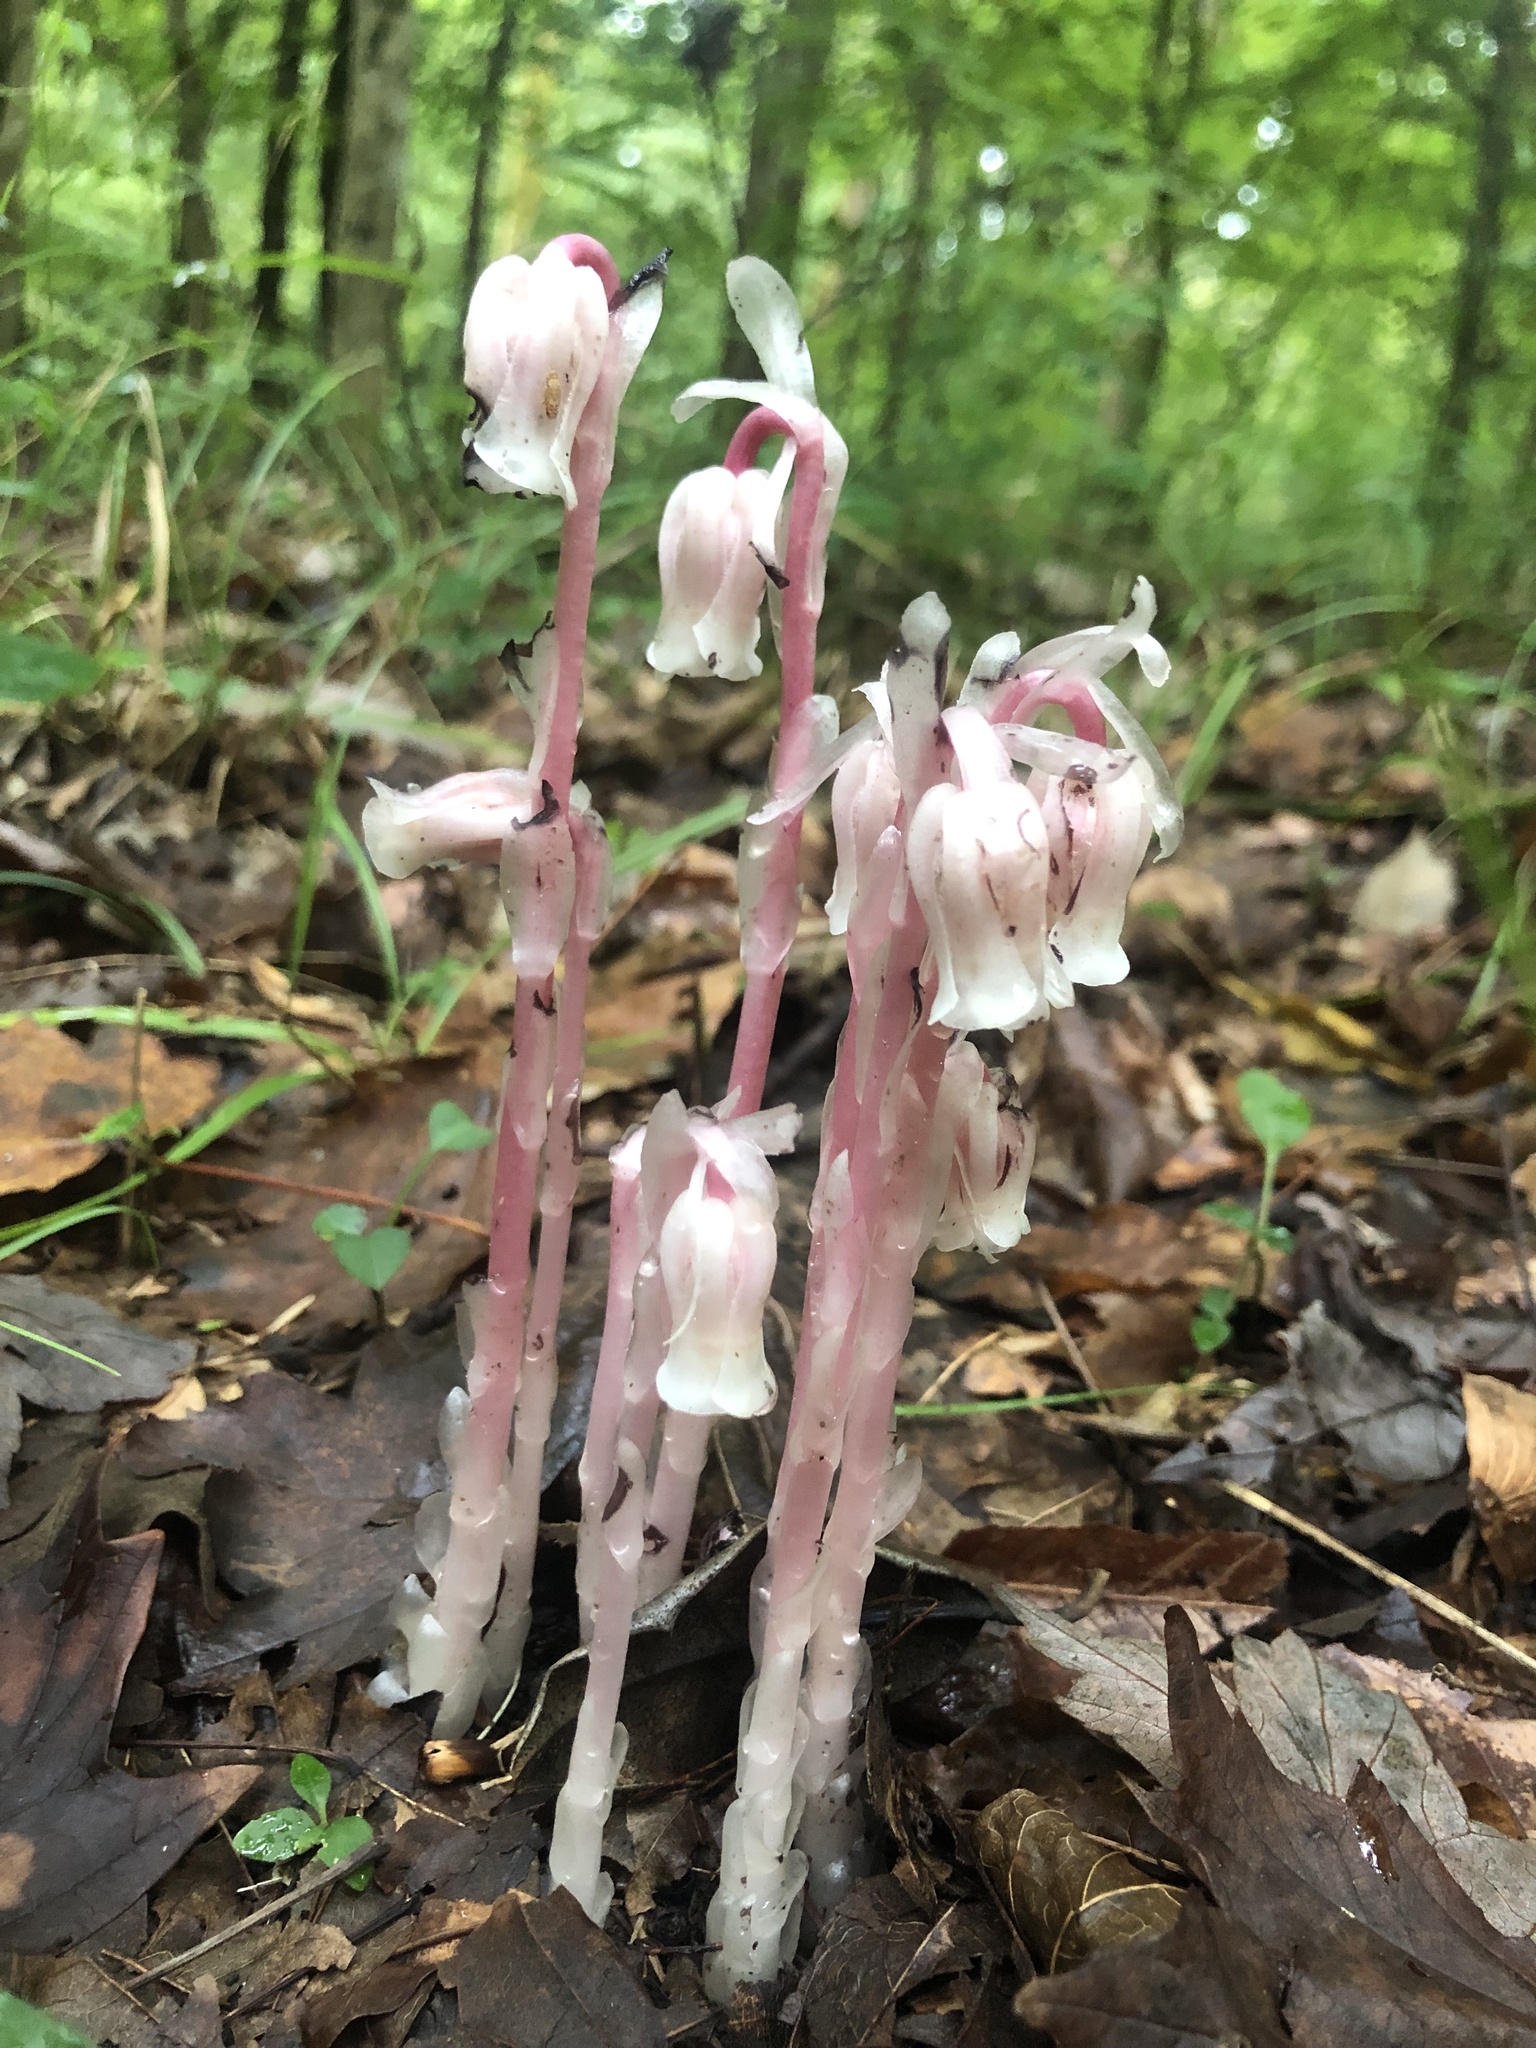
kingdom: Plantae
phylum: Tracheophyta
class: Magnoliopsida
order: Ericales
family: Ericaceae
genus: Monotropa
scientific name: Monotropa uniflora
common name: Convulsion root
